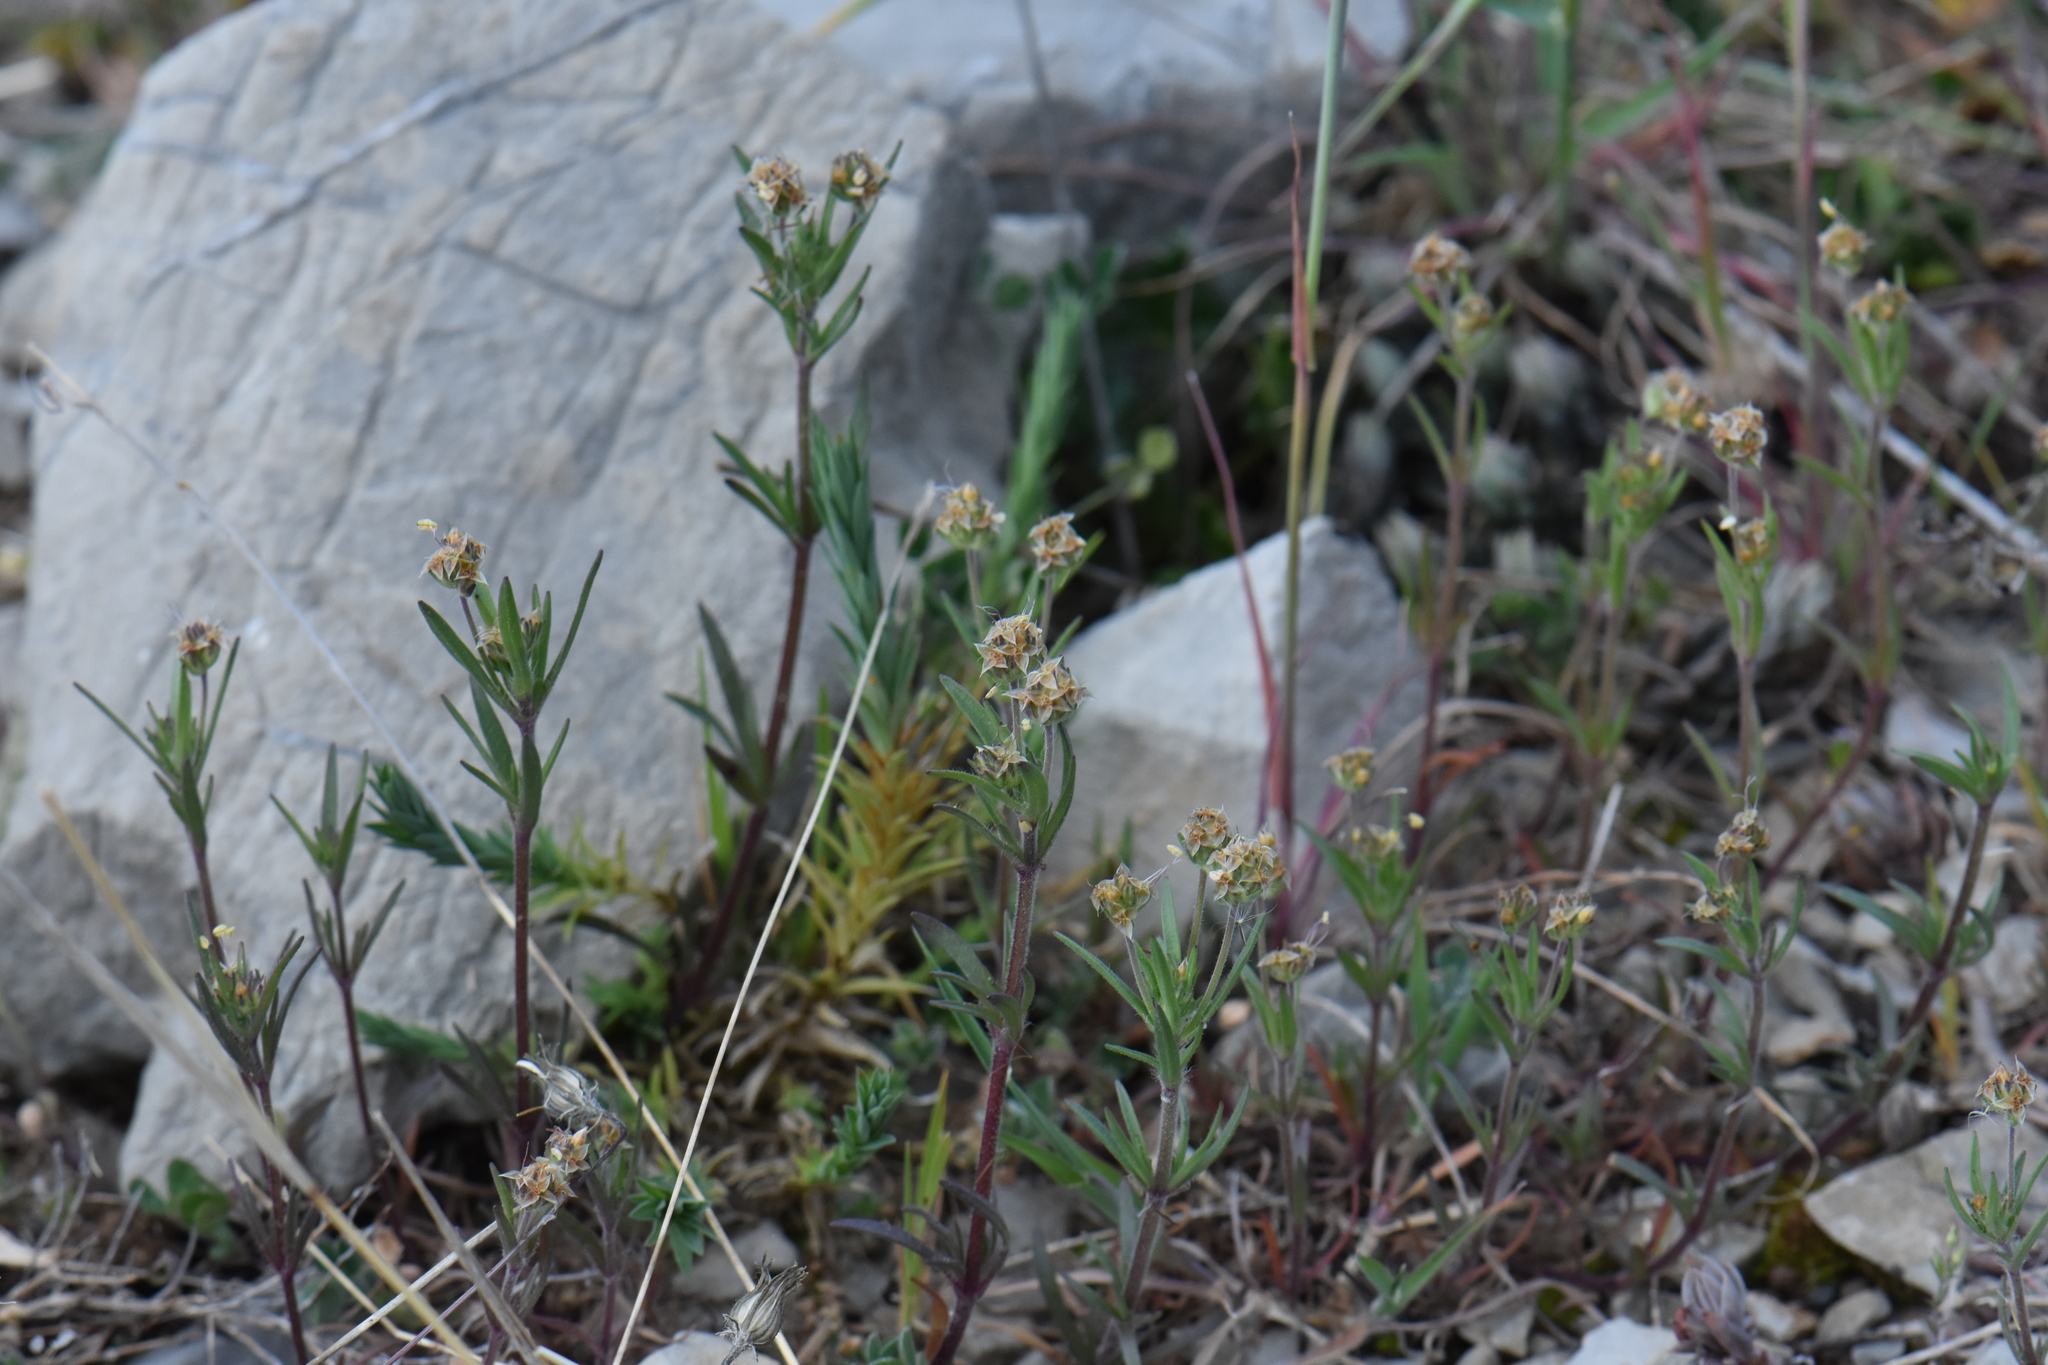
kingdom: Plantae
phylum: Tracheophyta
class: Magnoliopsida
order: Lamiales
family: Plantaginaceae
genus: Plantago
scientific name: Plantago afra
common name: Glandular plantain
